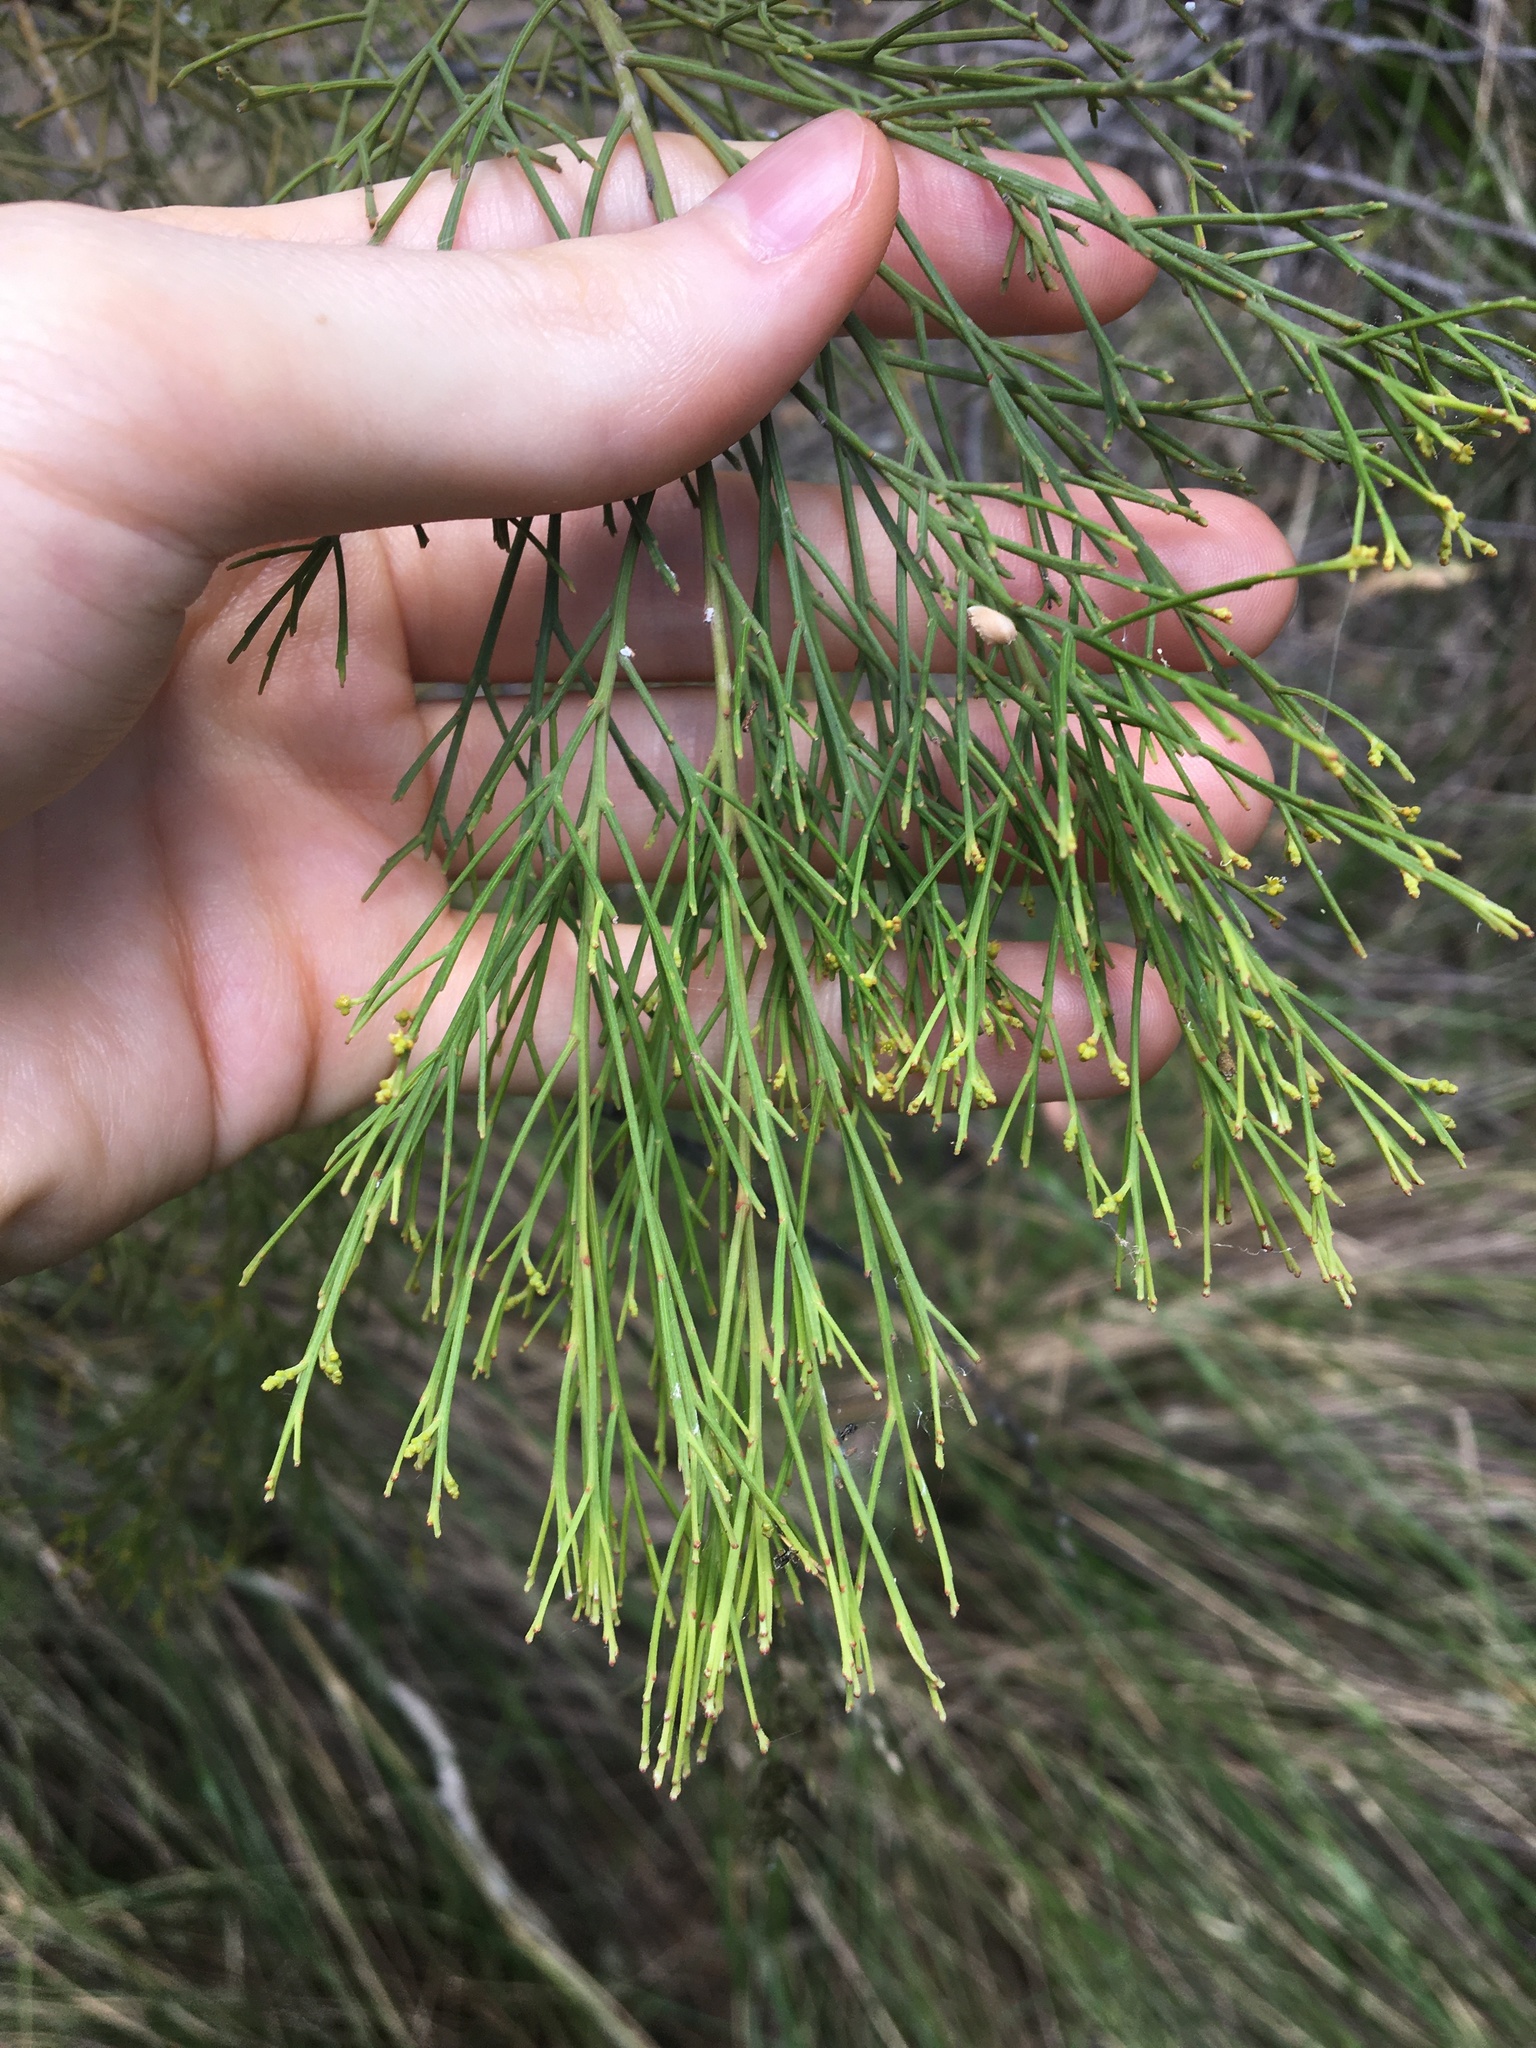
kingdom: Plantae
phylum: Tracheophyta
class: Magnoliopsida
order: Santalales
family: Santalaceae
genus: Exocarpos
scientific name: Exocarpos cupressiformis
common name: Cherry ballart
